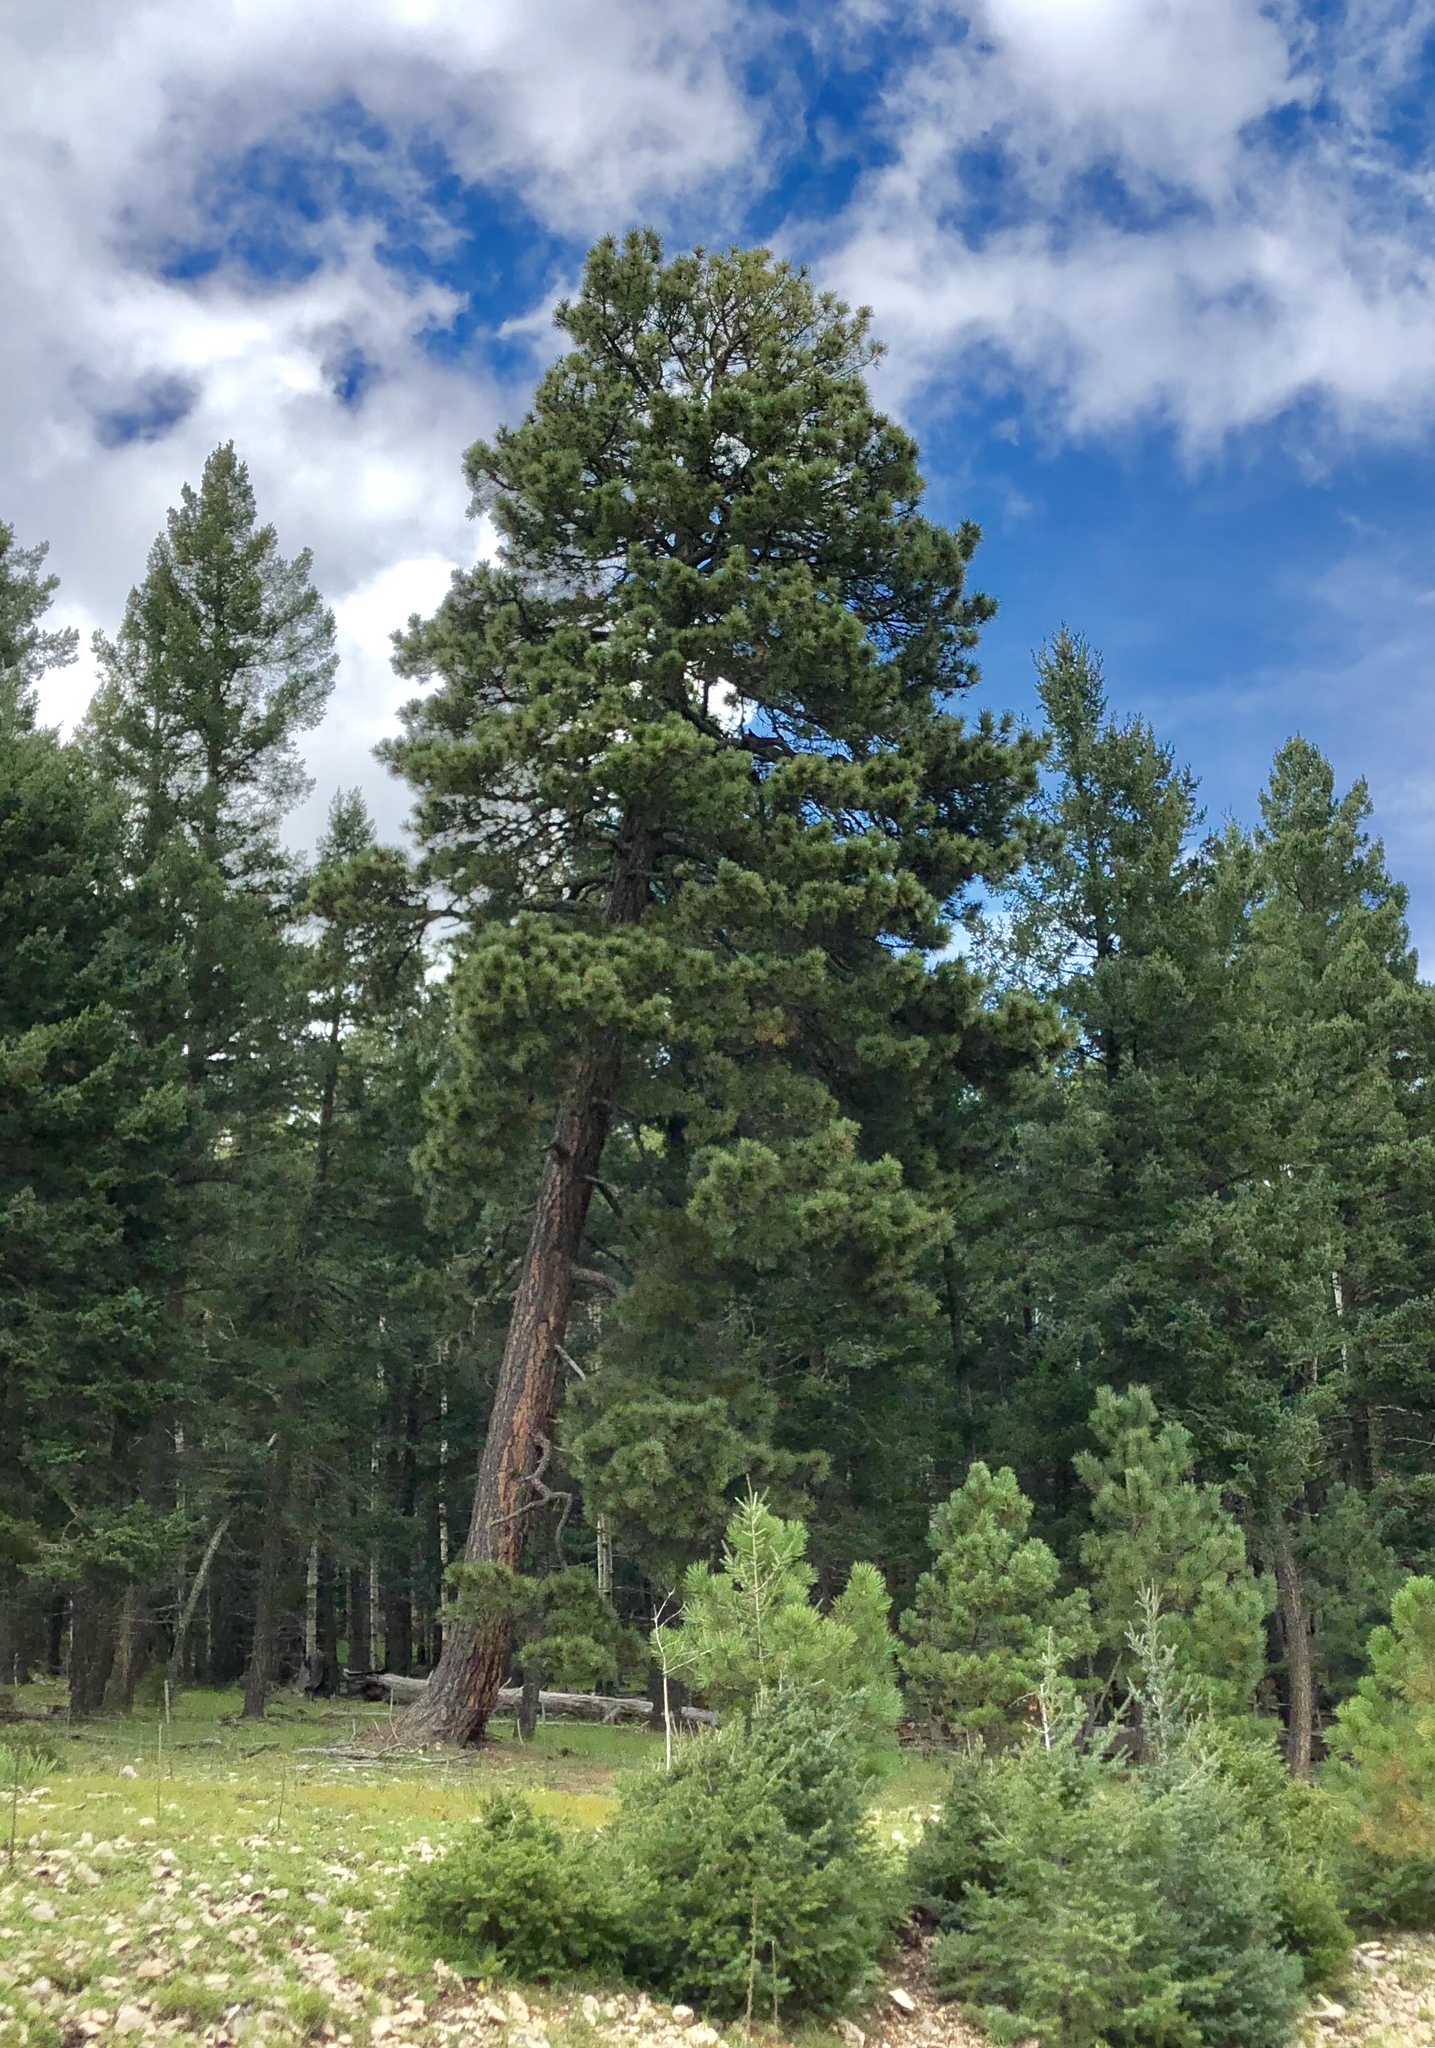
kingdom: Plantae
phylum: Tracheophyta
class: Pinopsida
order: Pinales
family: Pinaceae
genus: Pinus
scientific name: Pinus ponderosa
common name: Western yellow-pine
